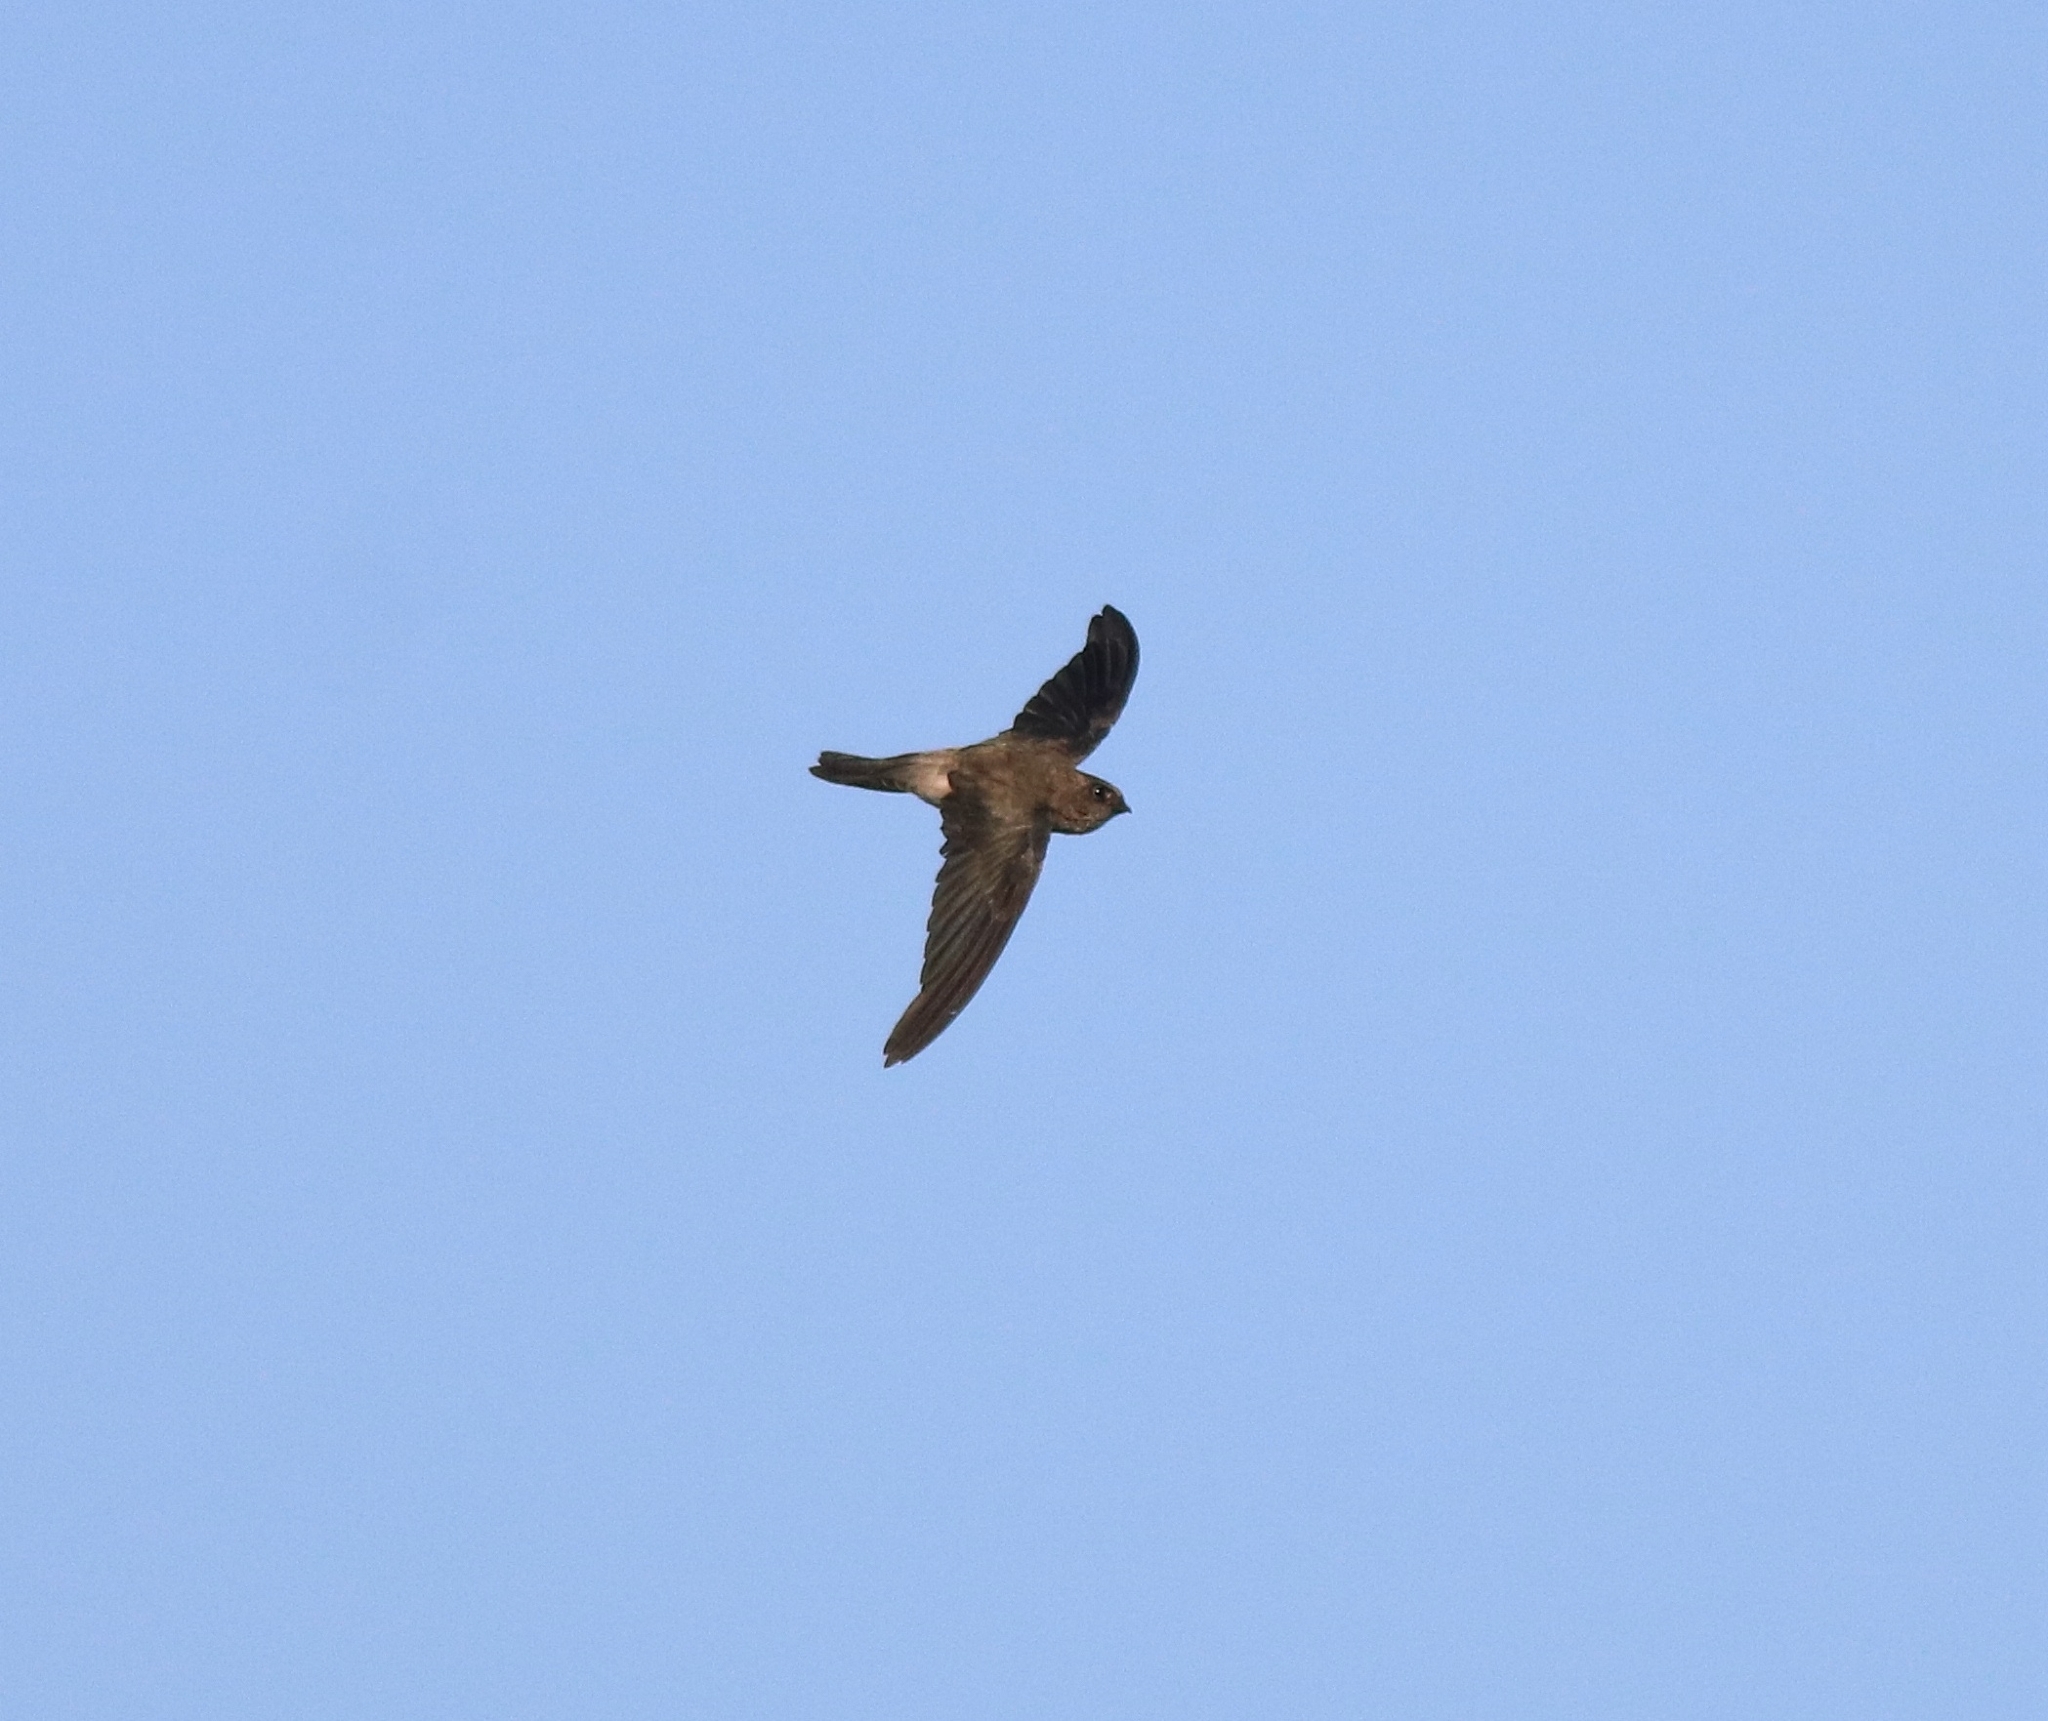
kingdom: Animalia
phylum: Chordata
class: Aves
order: Apodiformes
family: Apodidae
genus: Aerodramus
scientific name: Aerodramus unicolor
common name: Indian swiftlet
